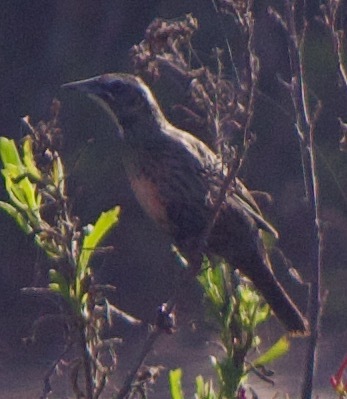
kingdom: Animalia
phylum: Chordata
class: Aves
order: Passeriformes
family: Icteridae
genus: Sturnella
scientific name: Sturnella loyca
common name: Long-tailed meadowlark
